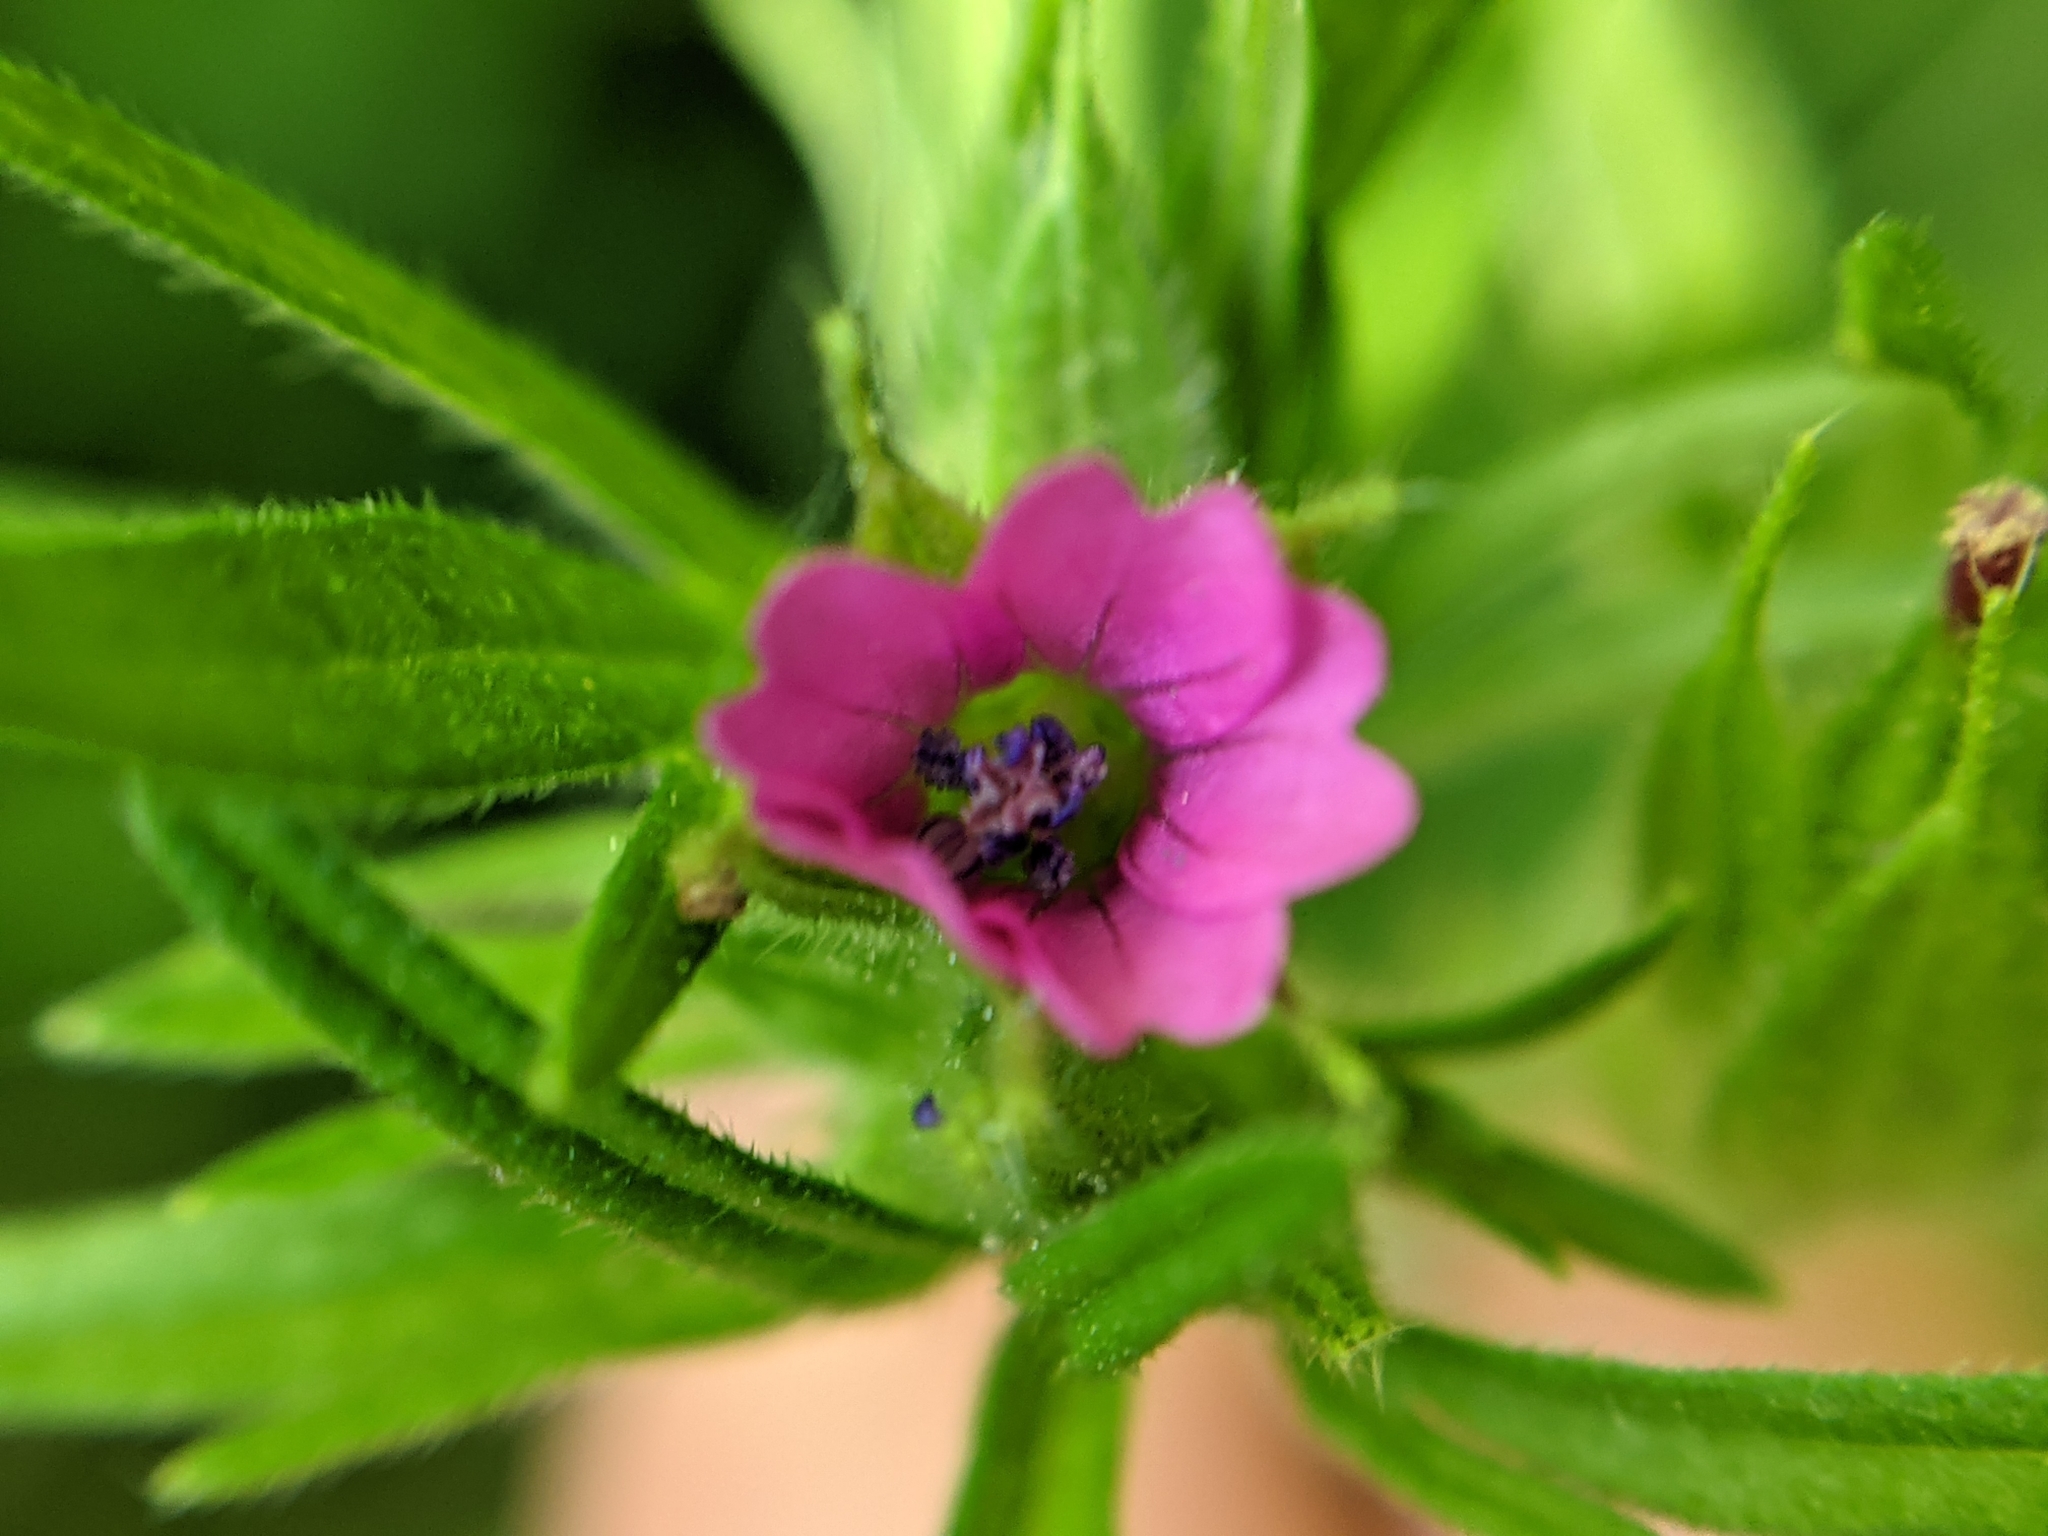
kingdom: Plantae
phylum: Tracheophyta
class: Magnoliopsida
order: Geraniales
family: Geraniaceae
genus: Geranium
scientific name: Geranium dissectum
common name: Cut-leaved crane's-bill
